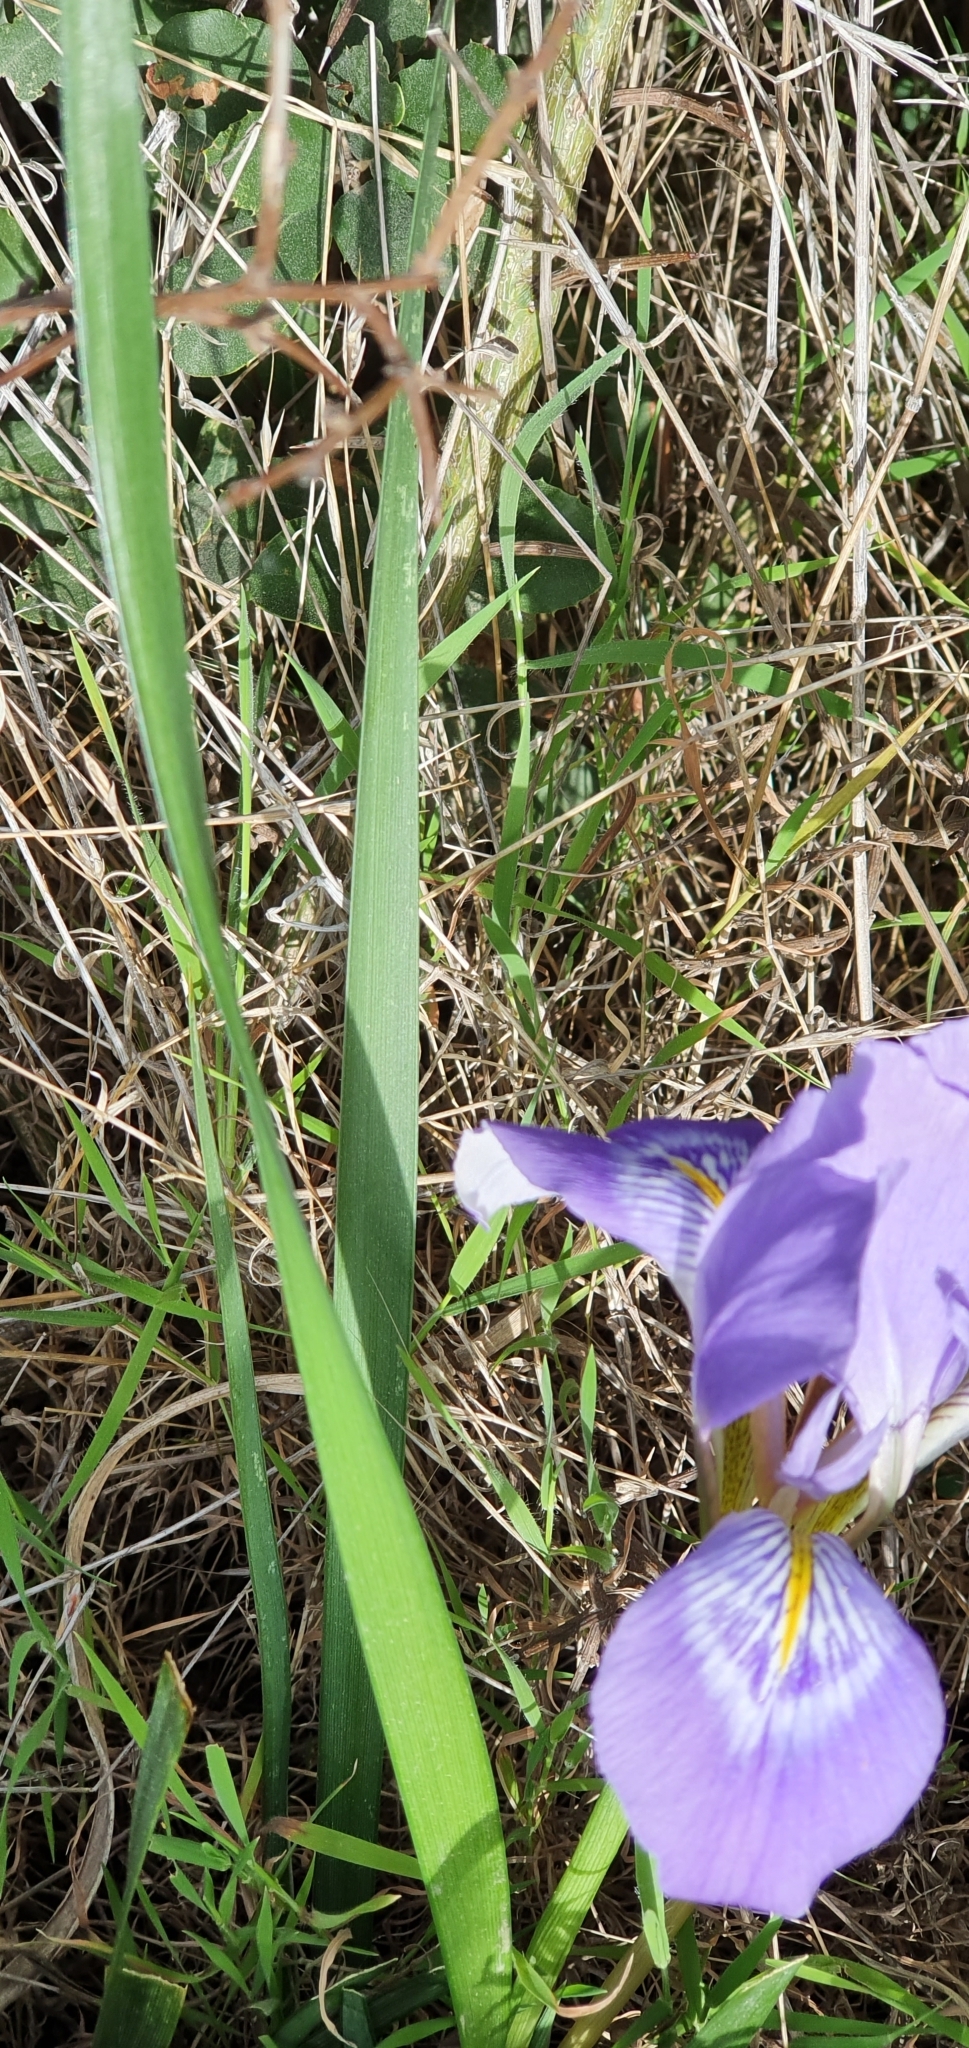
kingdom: Plantae
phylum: Tracheophyta
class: Liliopsida
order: Asparagales
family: Iridaceae
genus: Iris
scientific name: Iris unguicularis
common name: Algerian iris
